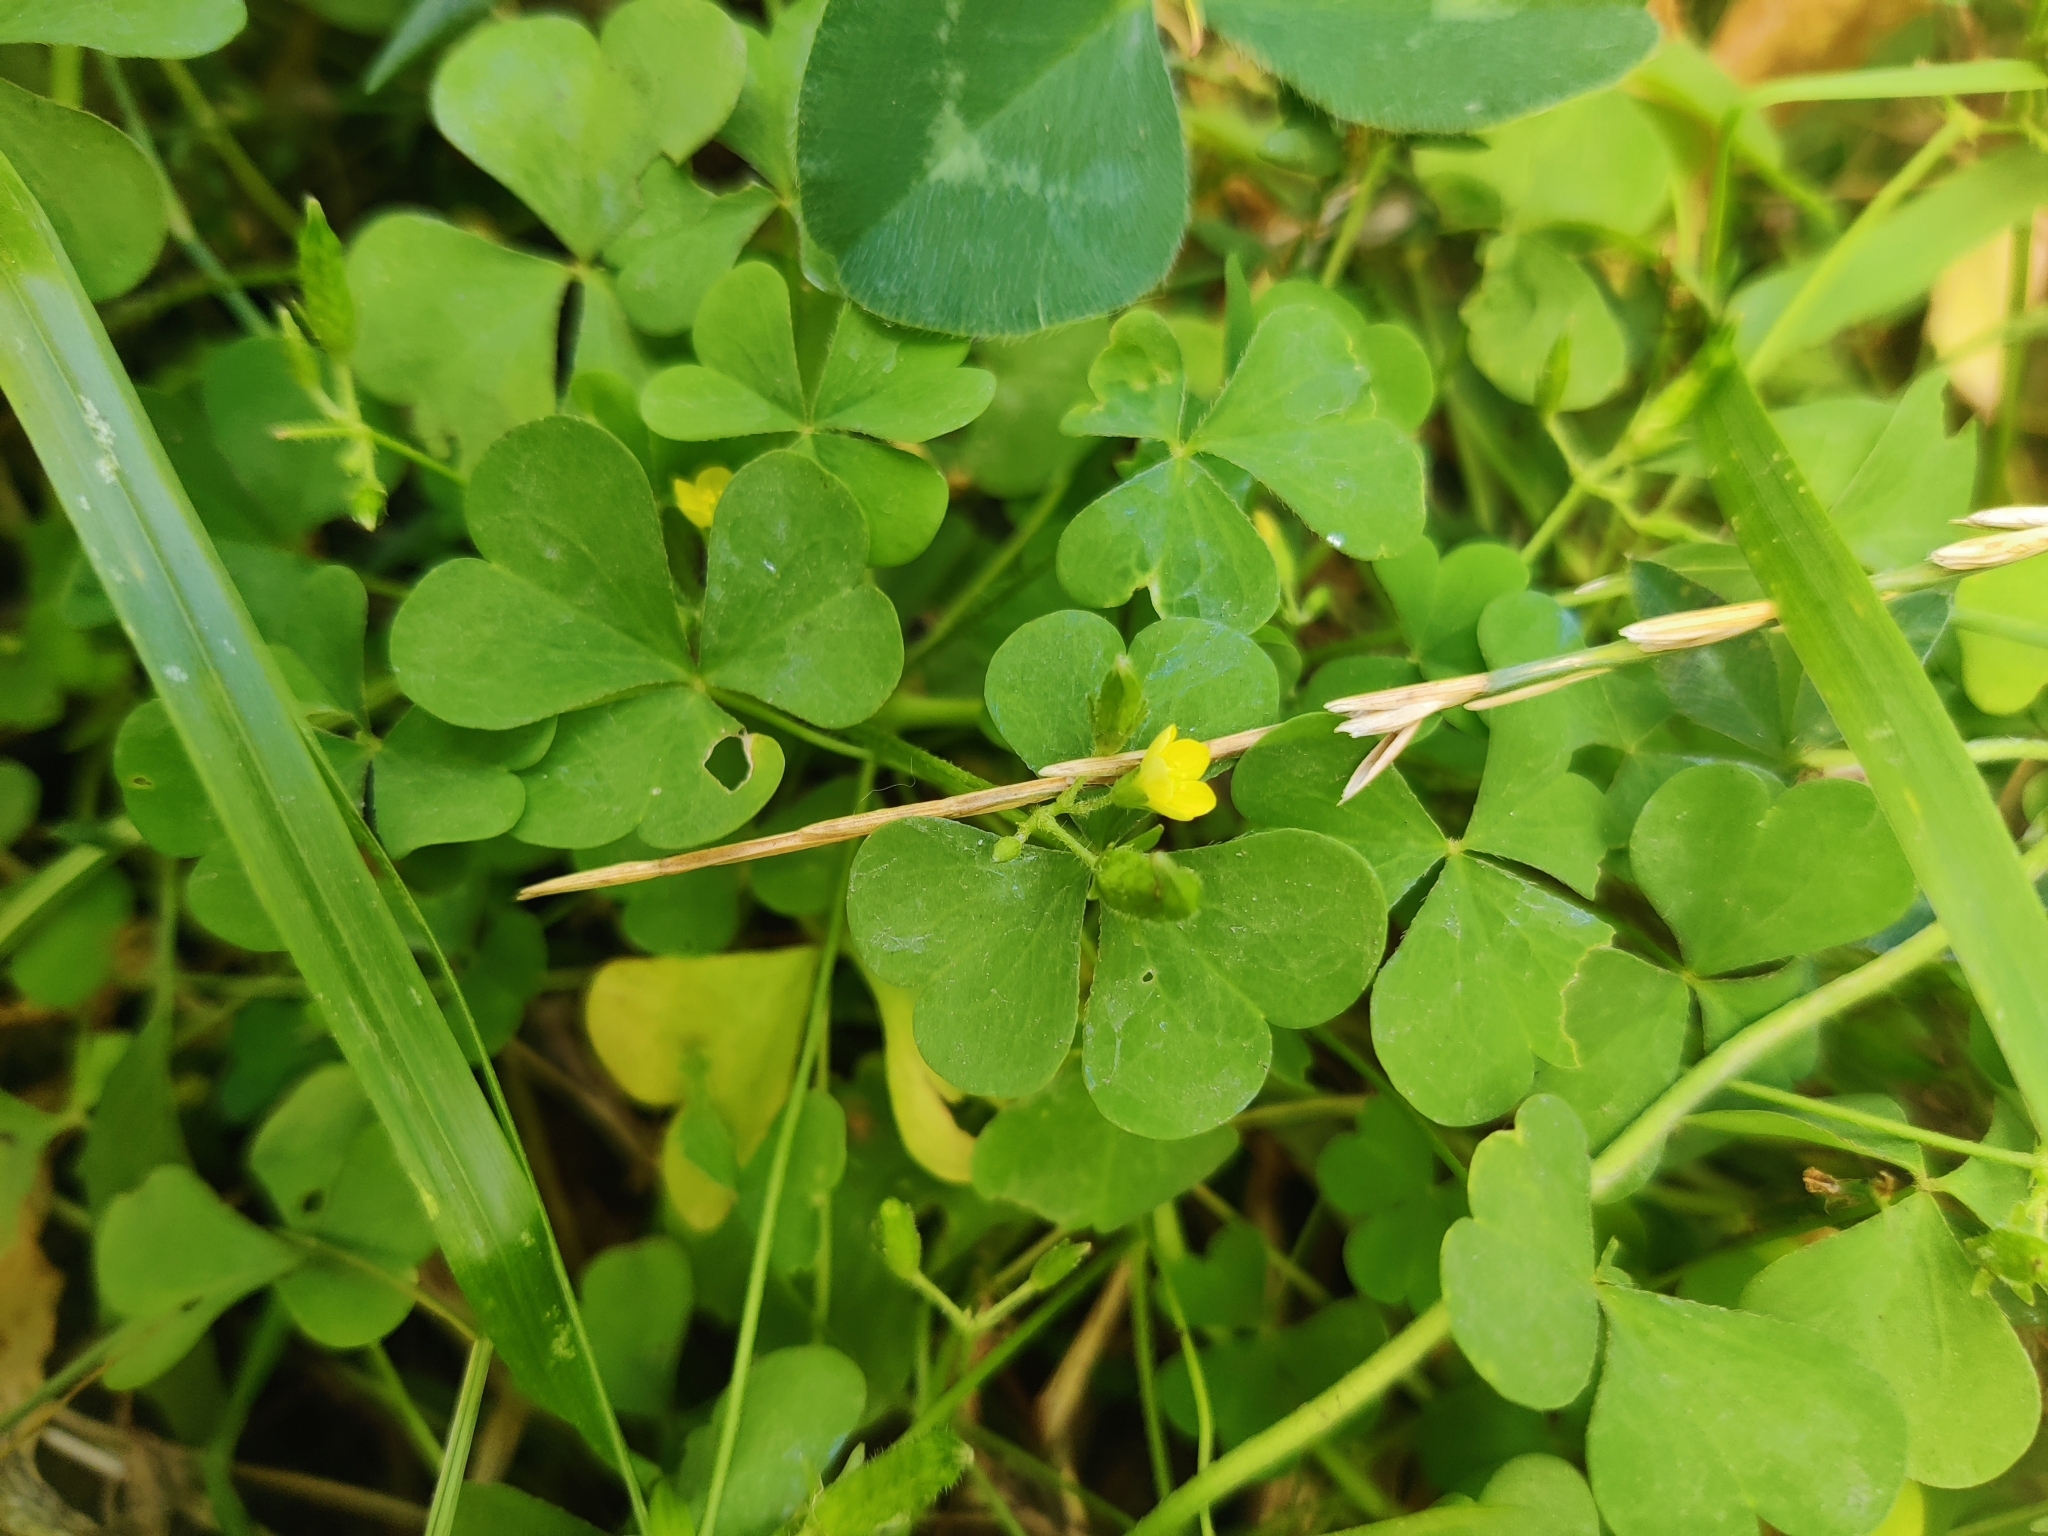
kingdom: Plantae
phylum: Tracheophyta
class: Magnoliopsida
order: Oxalidales
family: Oxalidaceae
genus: Oxalis
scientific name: Oxalis stricta
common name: Upright yellow-sorrel
